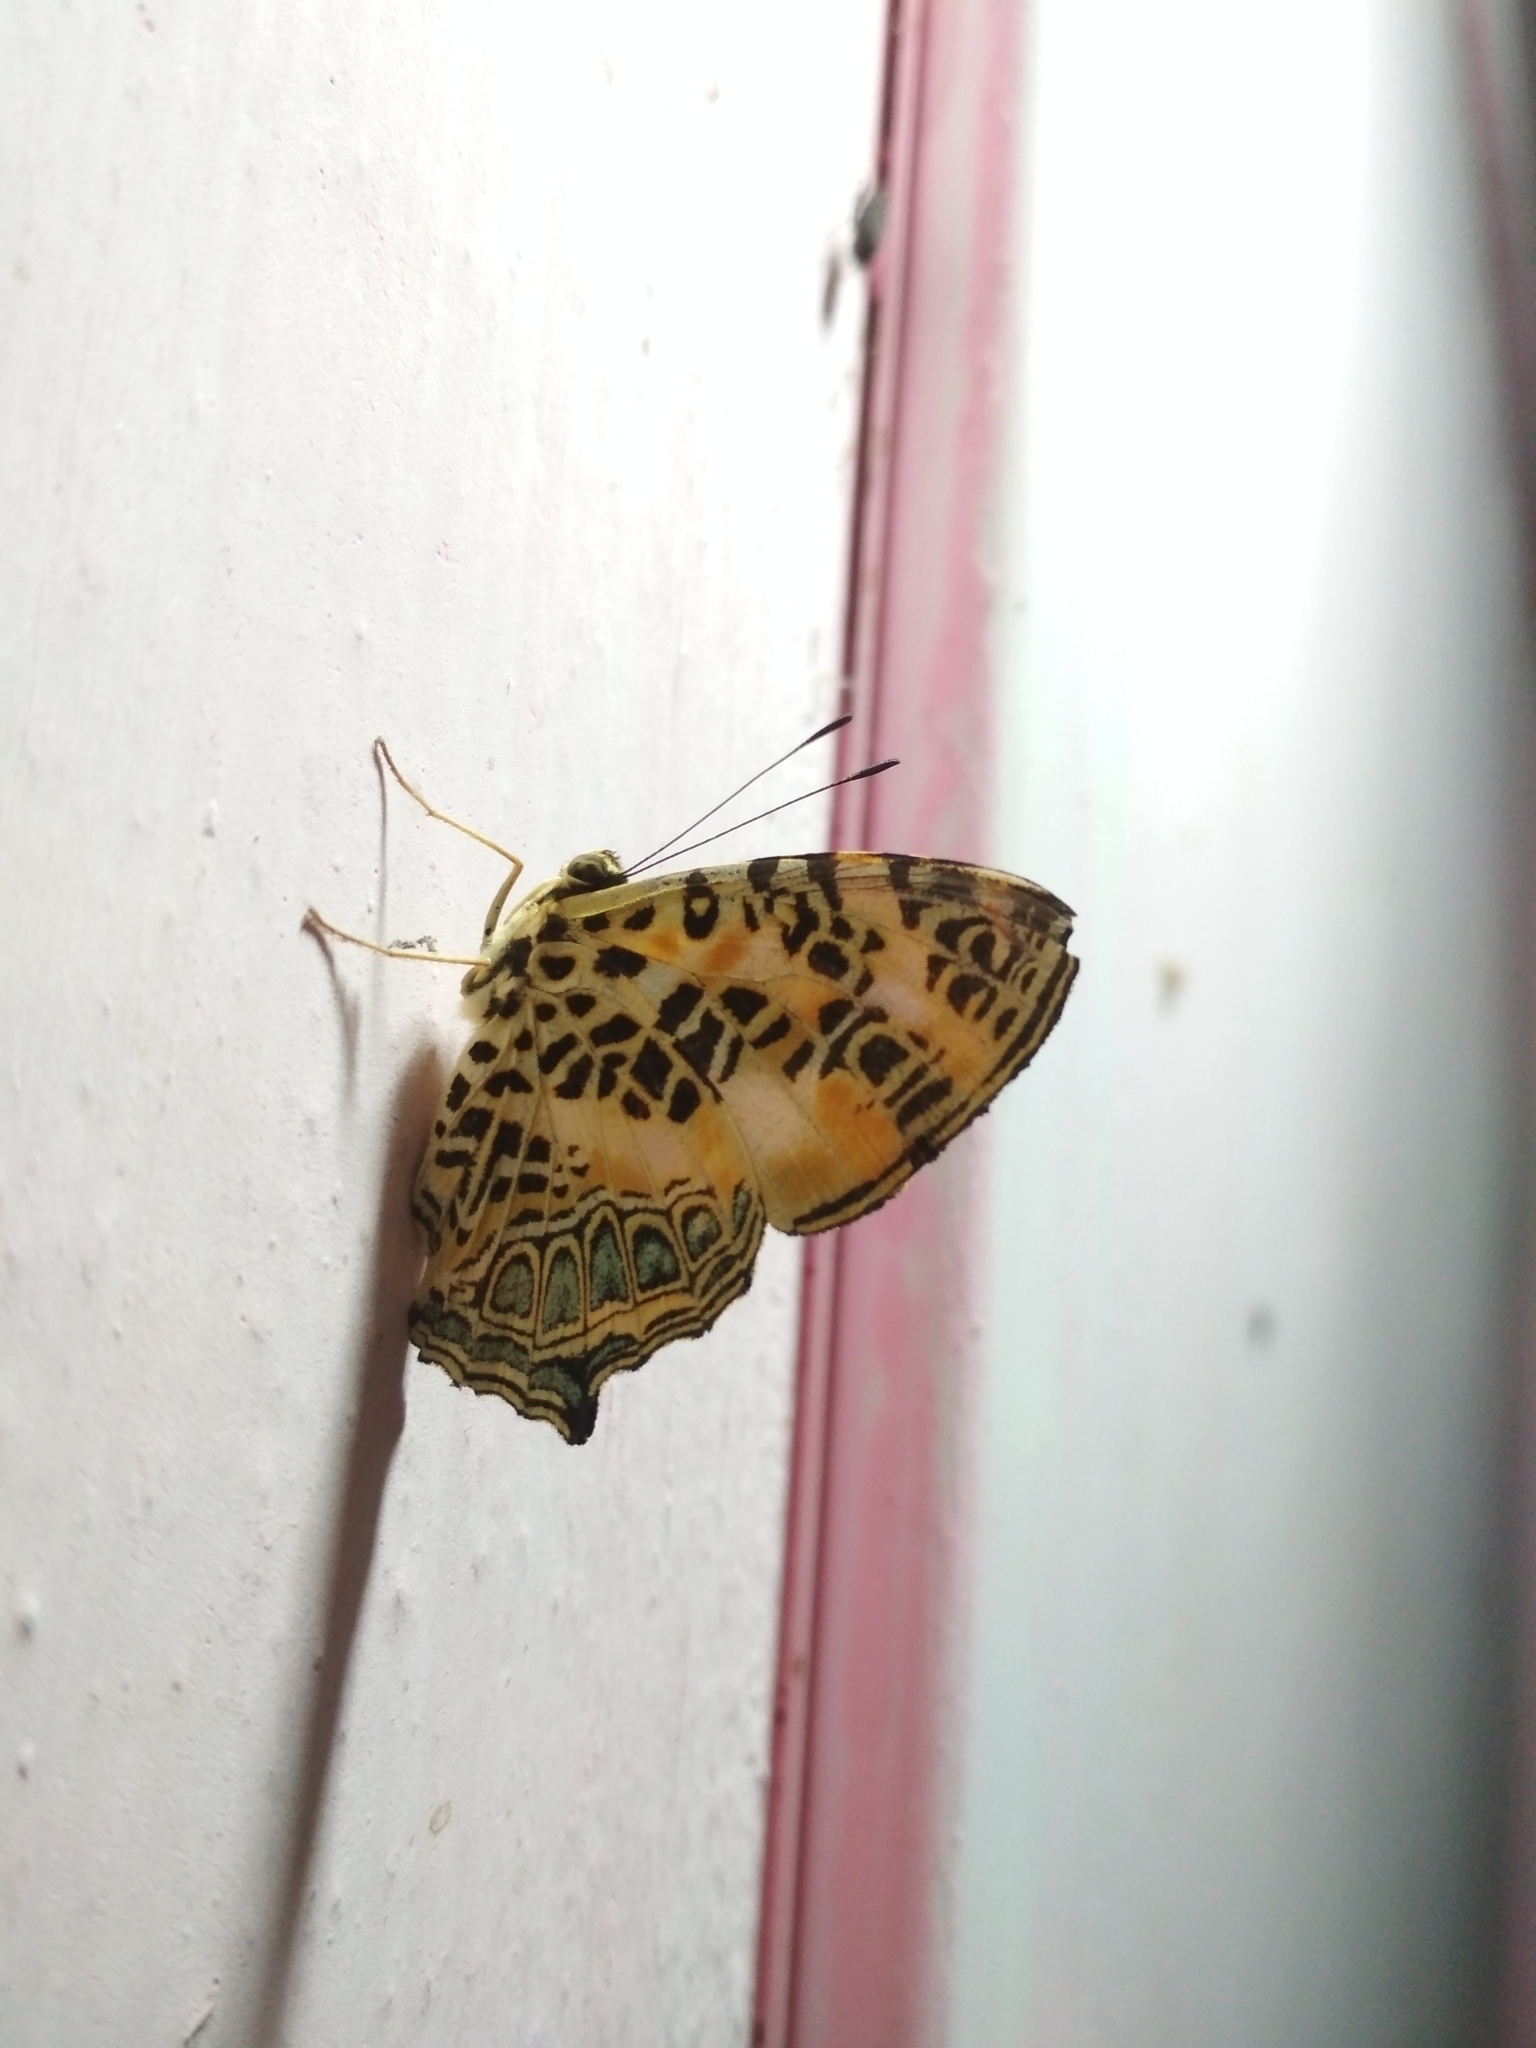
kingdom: Animalia
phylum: Arthropoda
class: Insecta
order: Lepidoptera
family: Nymphalidae
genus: Symbrenthia
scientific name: Symbrenthia hypselis
